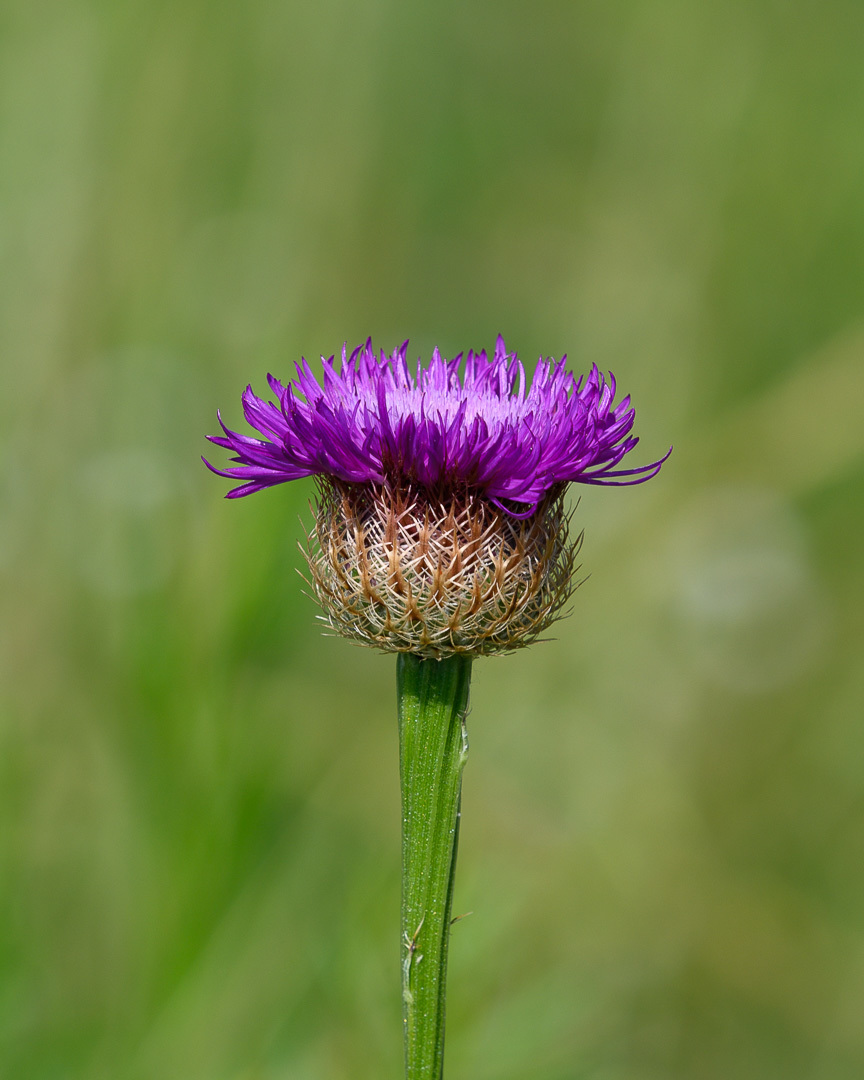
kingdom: Plantae
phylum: Tracheophyta
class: Magnoliopsida
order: Asterales
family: Asteraceae
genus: Plectocephalus
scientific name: Plectocephalus americanus
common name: American basket-flower
